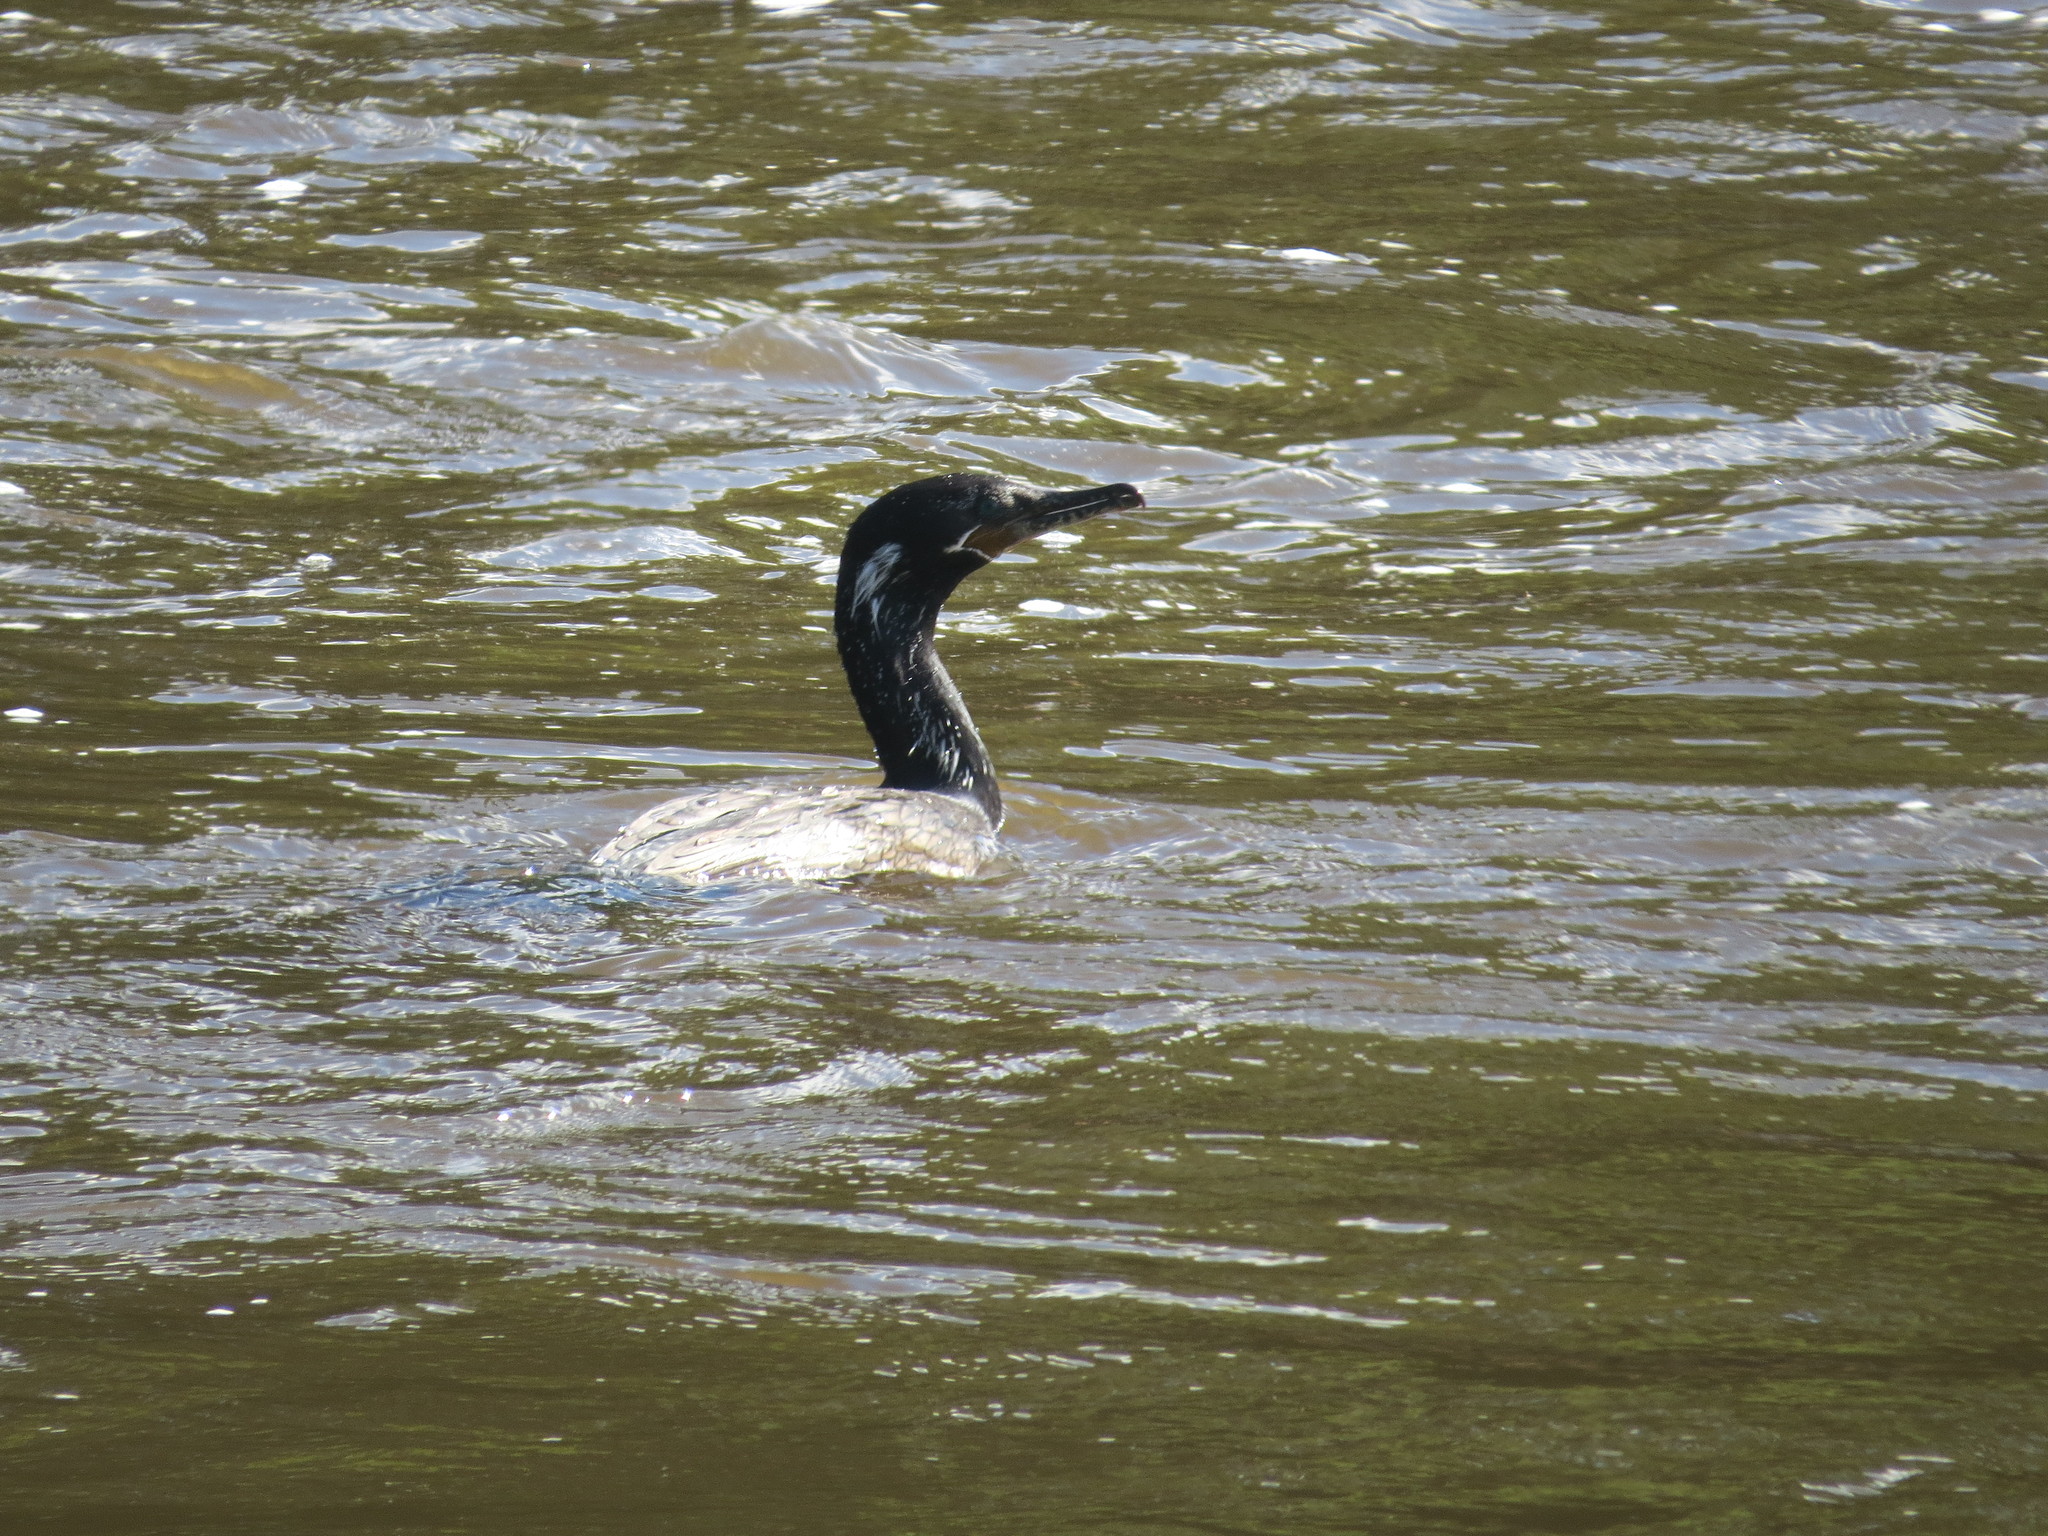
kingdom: Animalia
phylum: Chordata
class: Aves
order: Suliformes
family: Phalacrocoracidae
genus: Phalacrocorax
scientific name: Phalacrocorax brasilianus
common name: Neotropic cormorant
